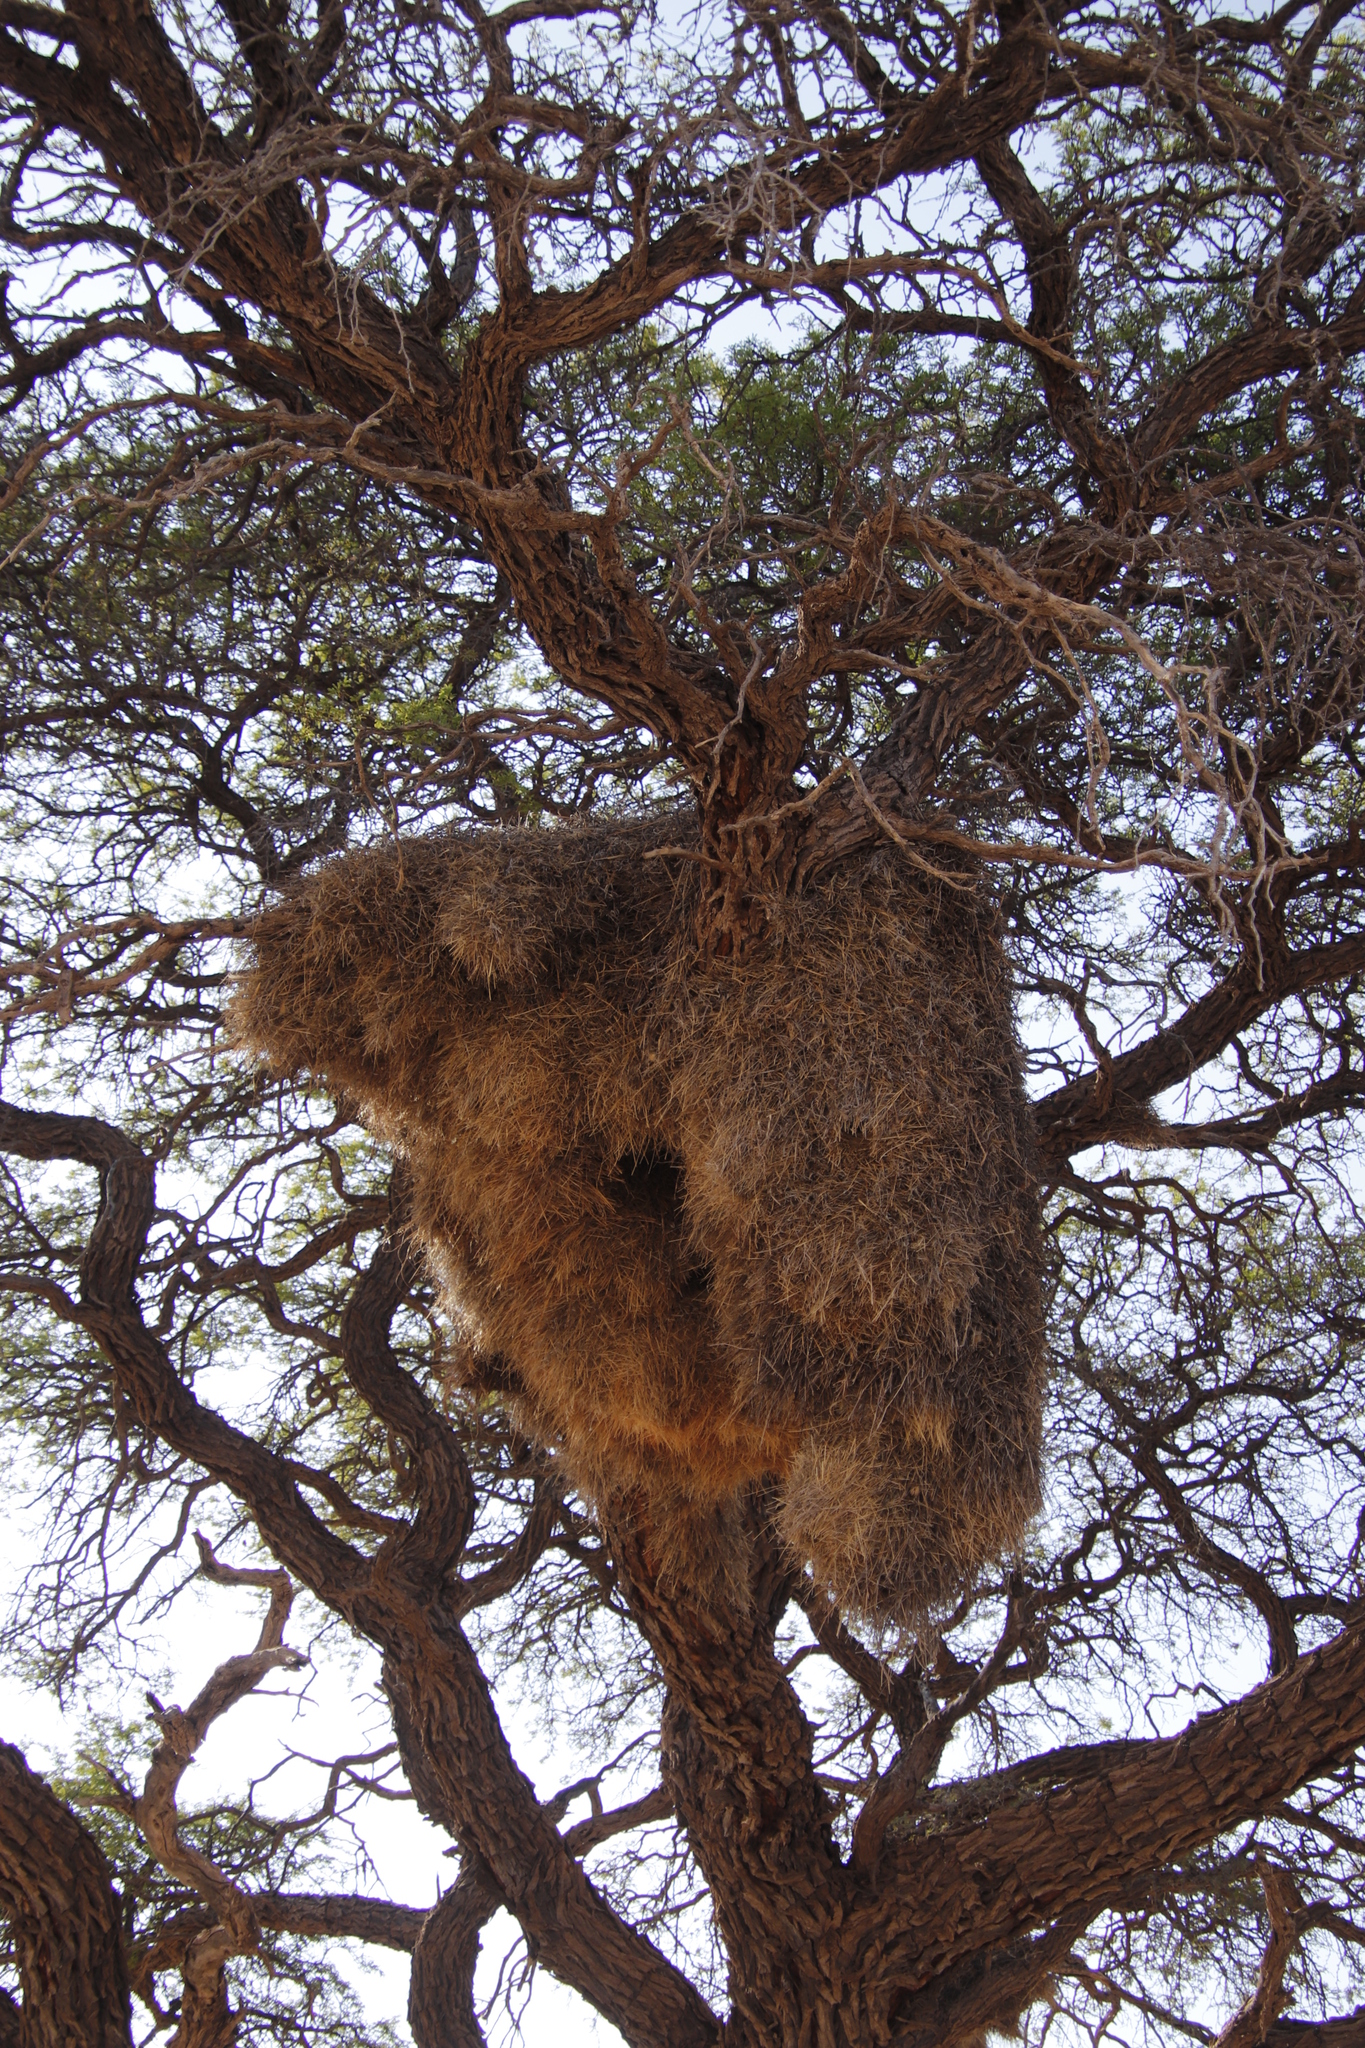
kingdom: Animalia
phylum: Chordata
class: Aves
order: Passeriformes
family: Passeridae
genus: Philetairus
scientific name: Philetairus socius
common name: Sociable weaver
